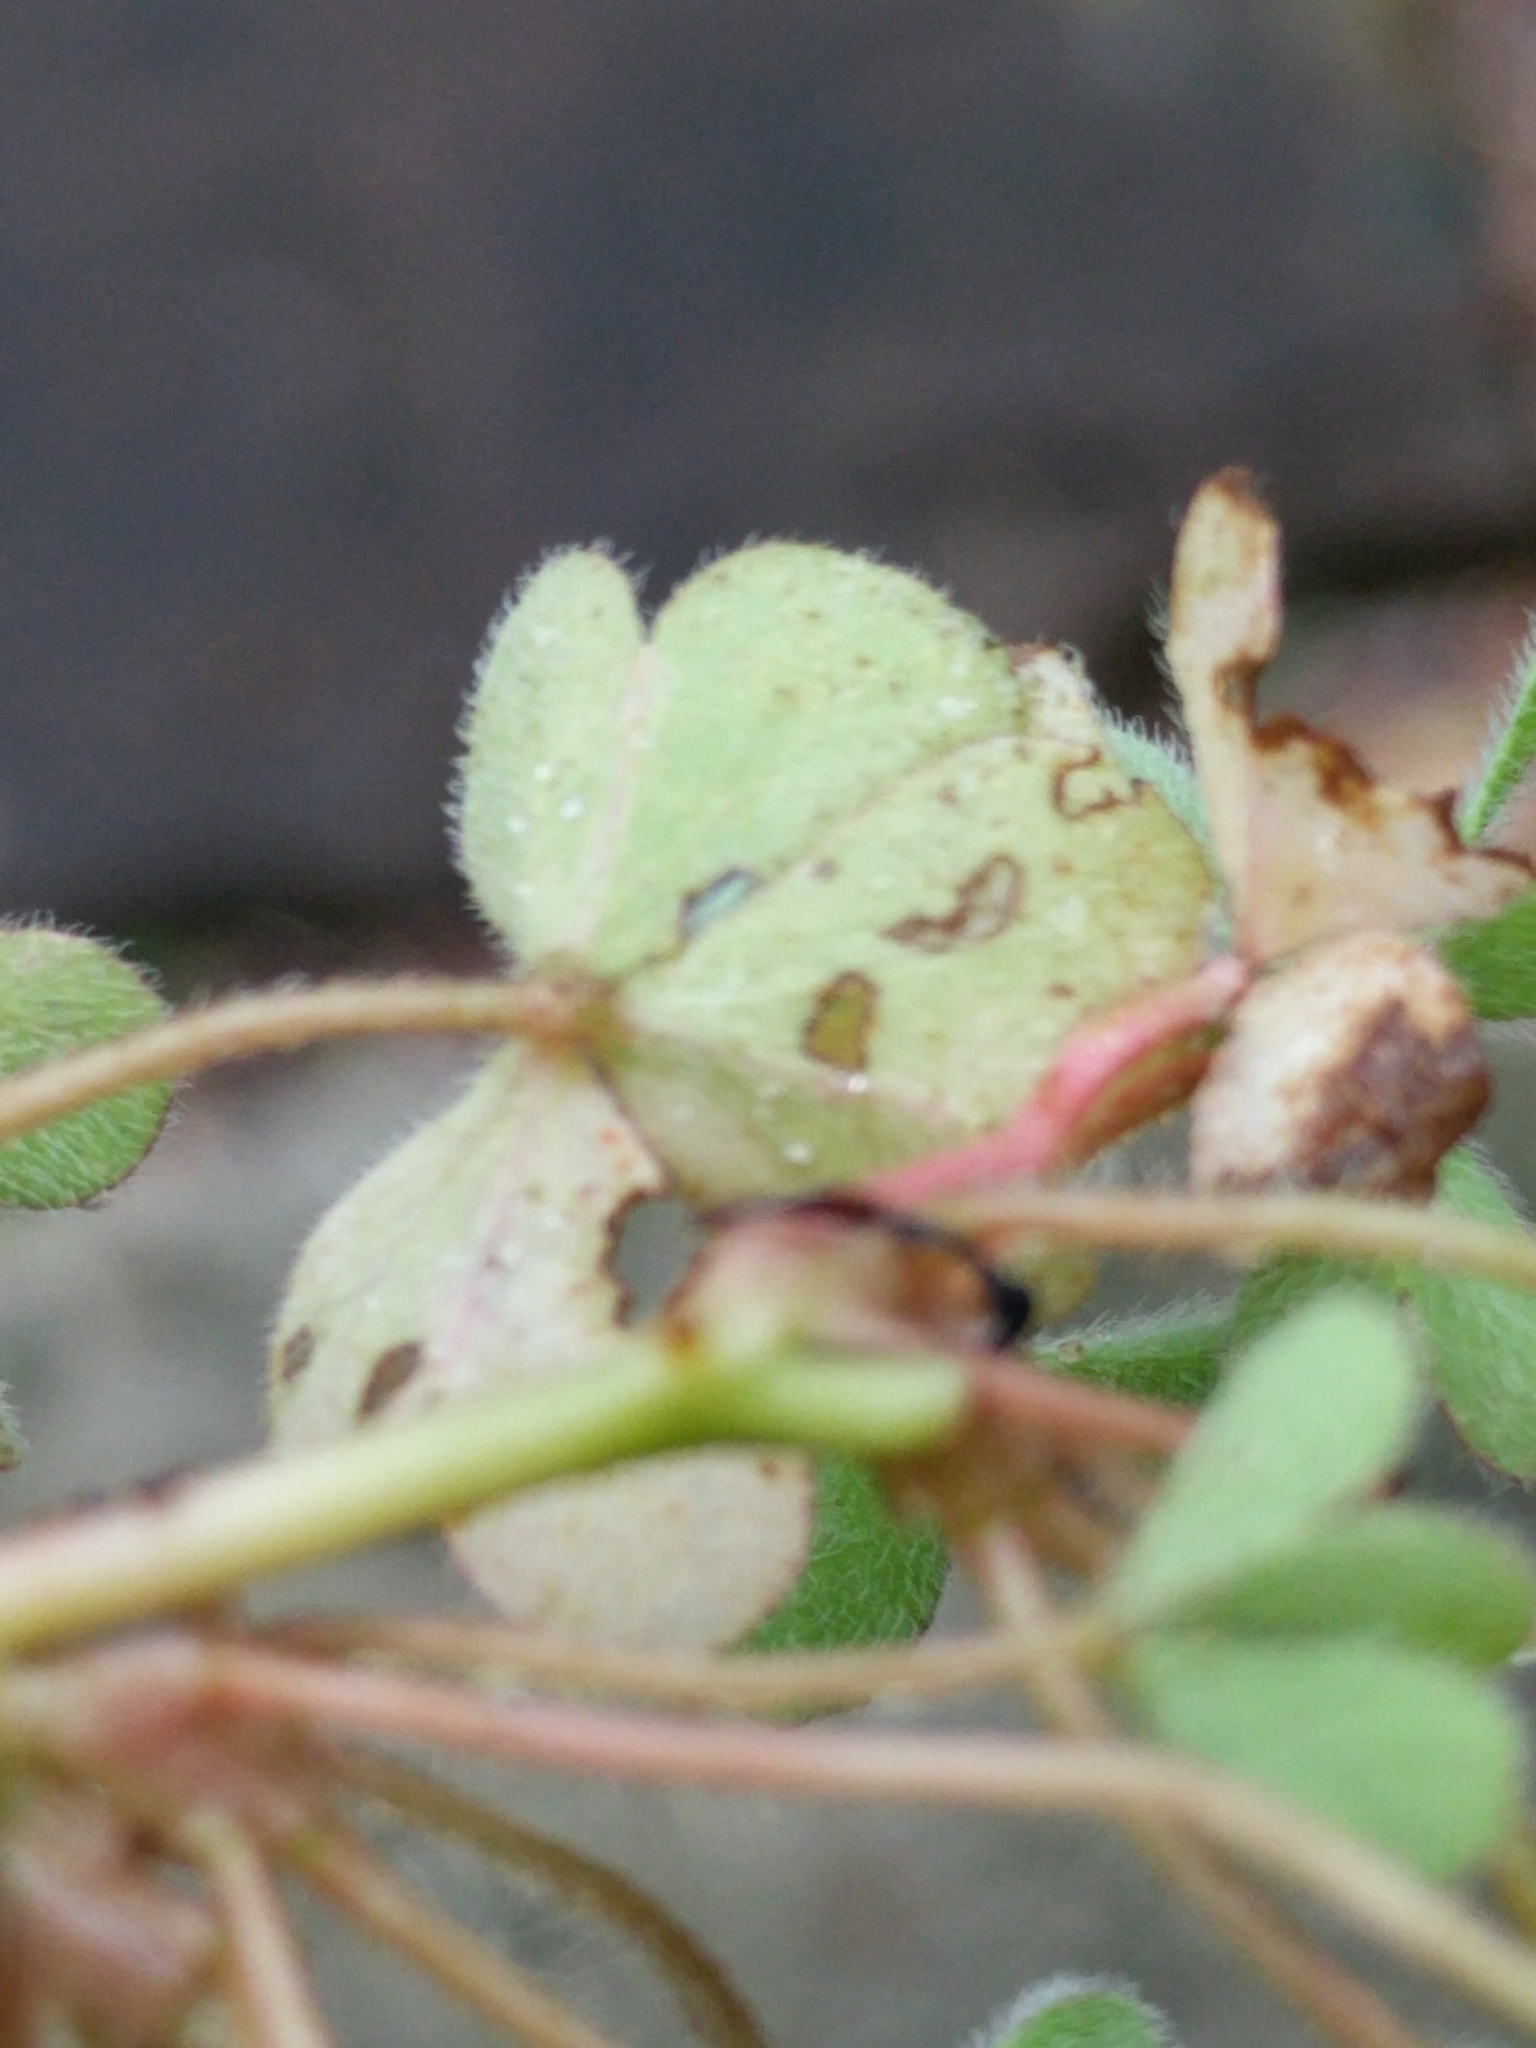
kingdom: Plantae
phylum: Tracheophyta
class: Magnoliopsida
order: Oxalidales
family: Oxalidaceae
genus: Oxalis
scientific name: Oxalis corniculata
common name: Procumbent yellow-sorrel
